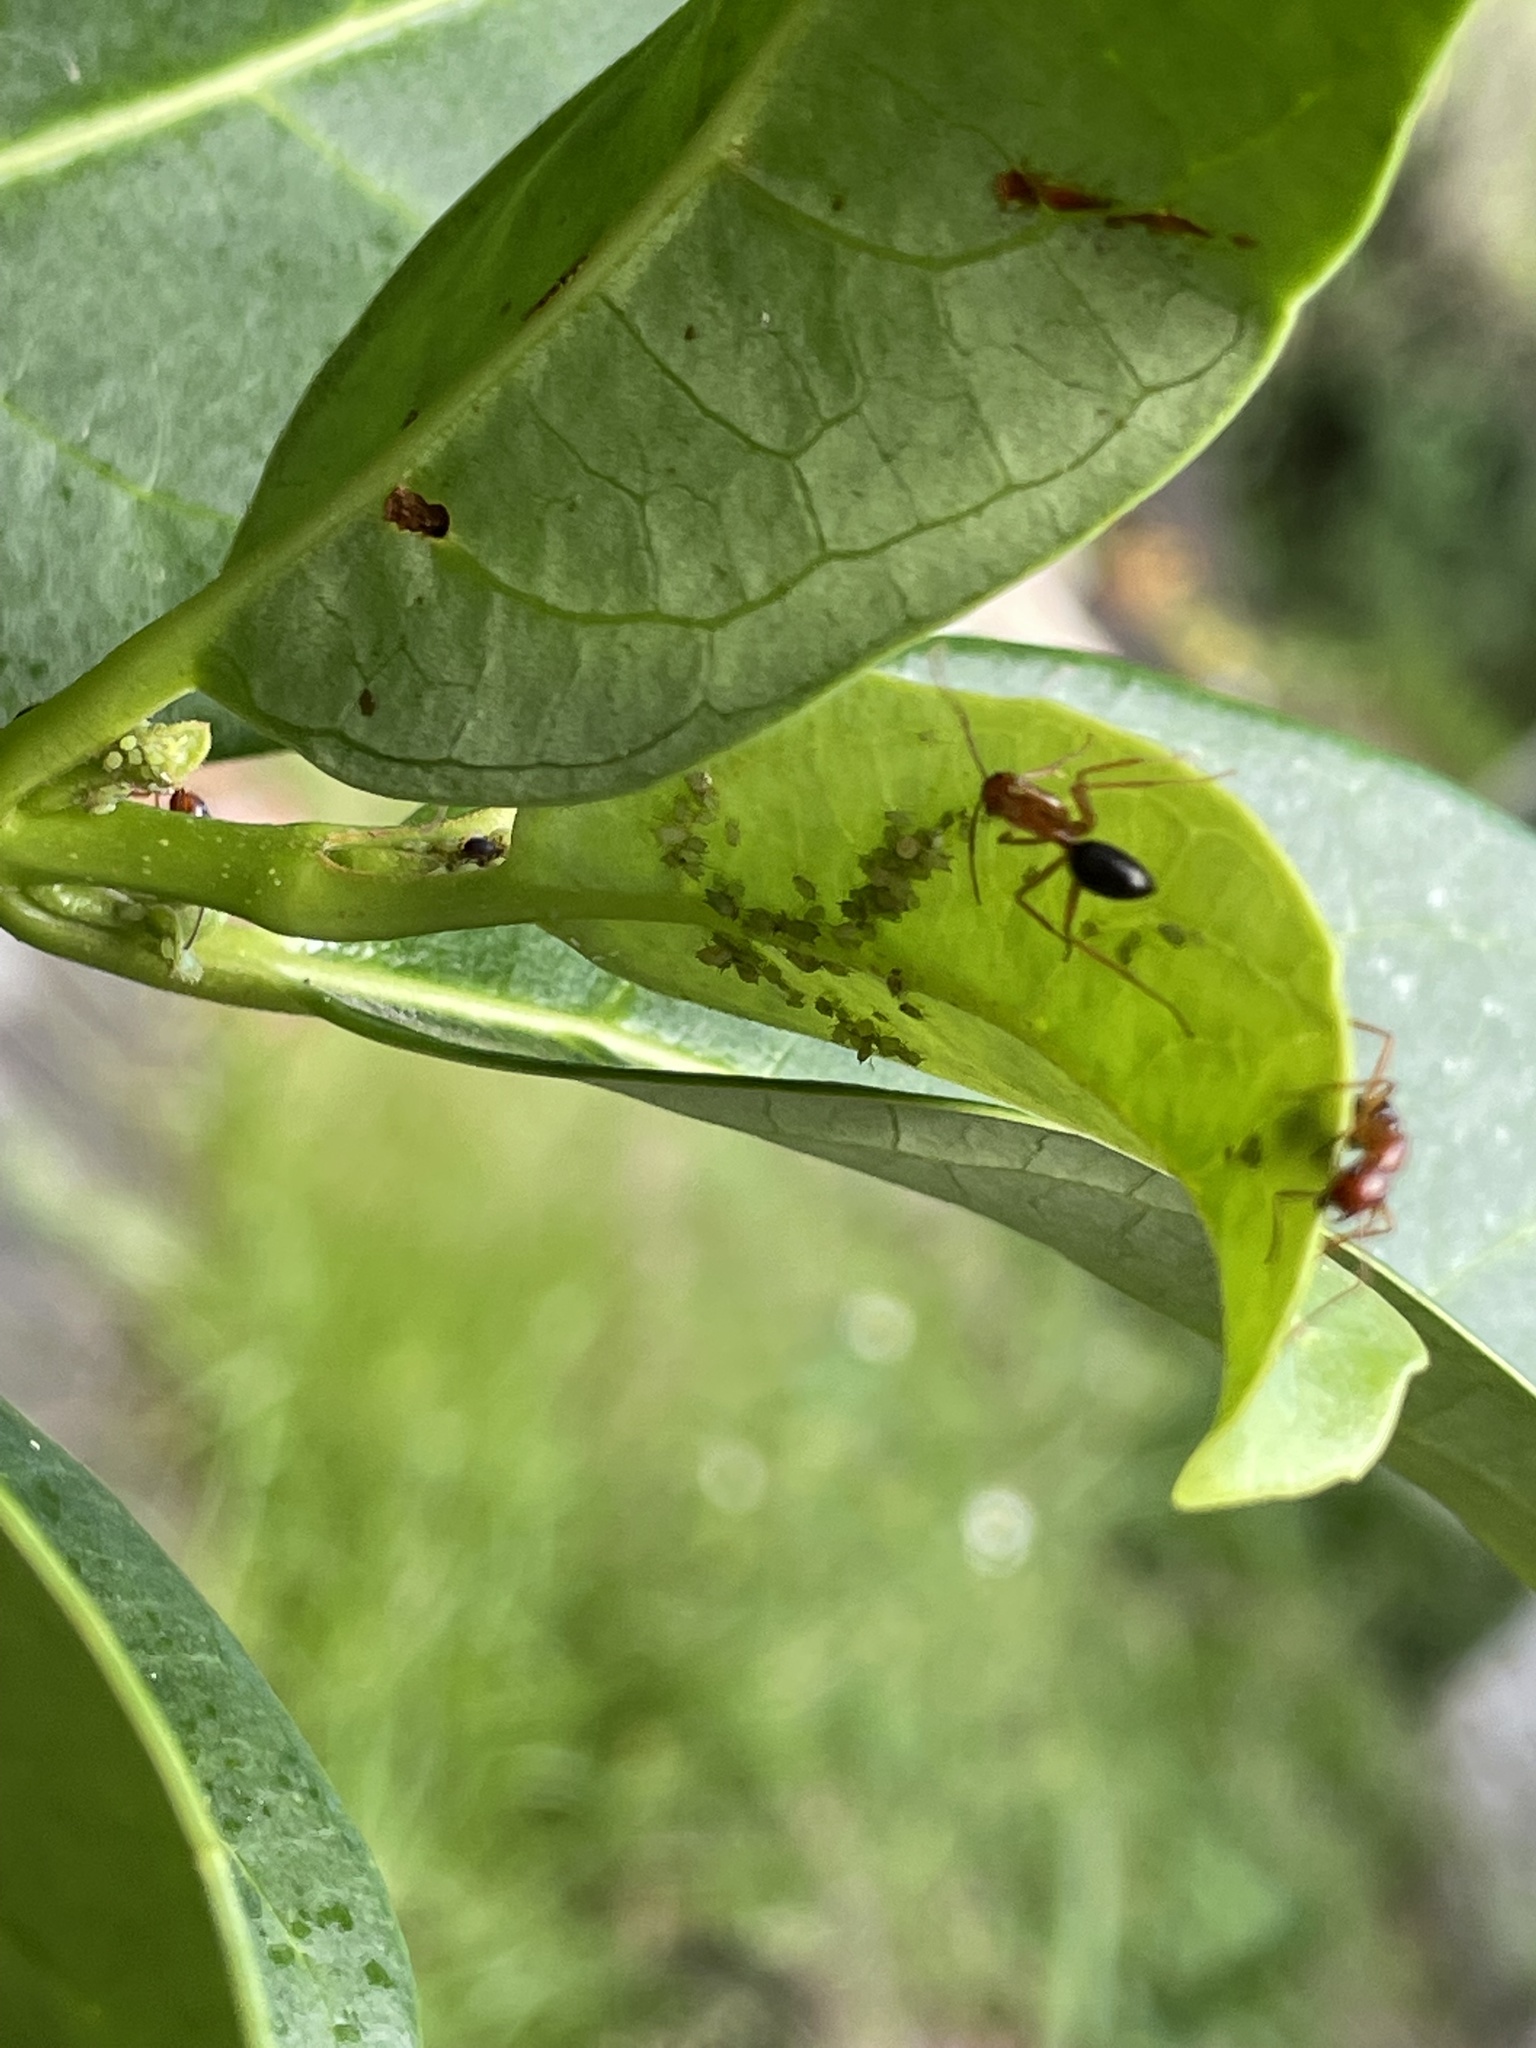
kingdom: Animalia
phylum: Arthropoda
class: Insecta
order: Hymenoptera
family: Formicidae
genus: Camponotus
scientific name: Camponotus floridanus
